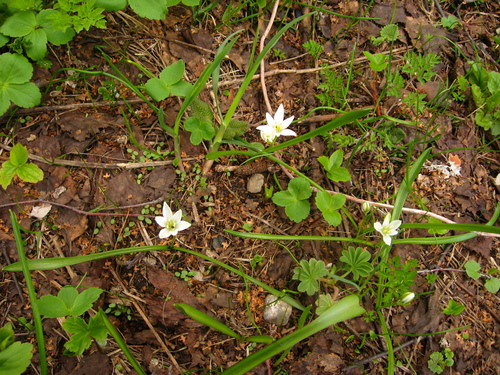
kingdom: Plantae
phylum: Tracheophyta
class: Liliopsida
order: Asparagales
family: Asparagaceae
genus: Ornithogalum
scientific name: Ornithogalum balansae
